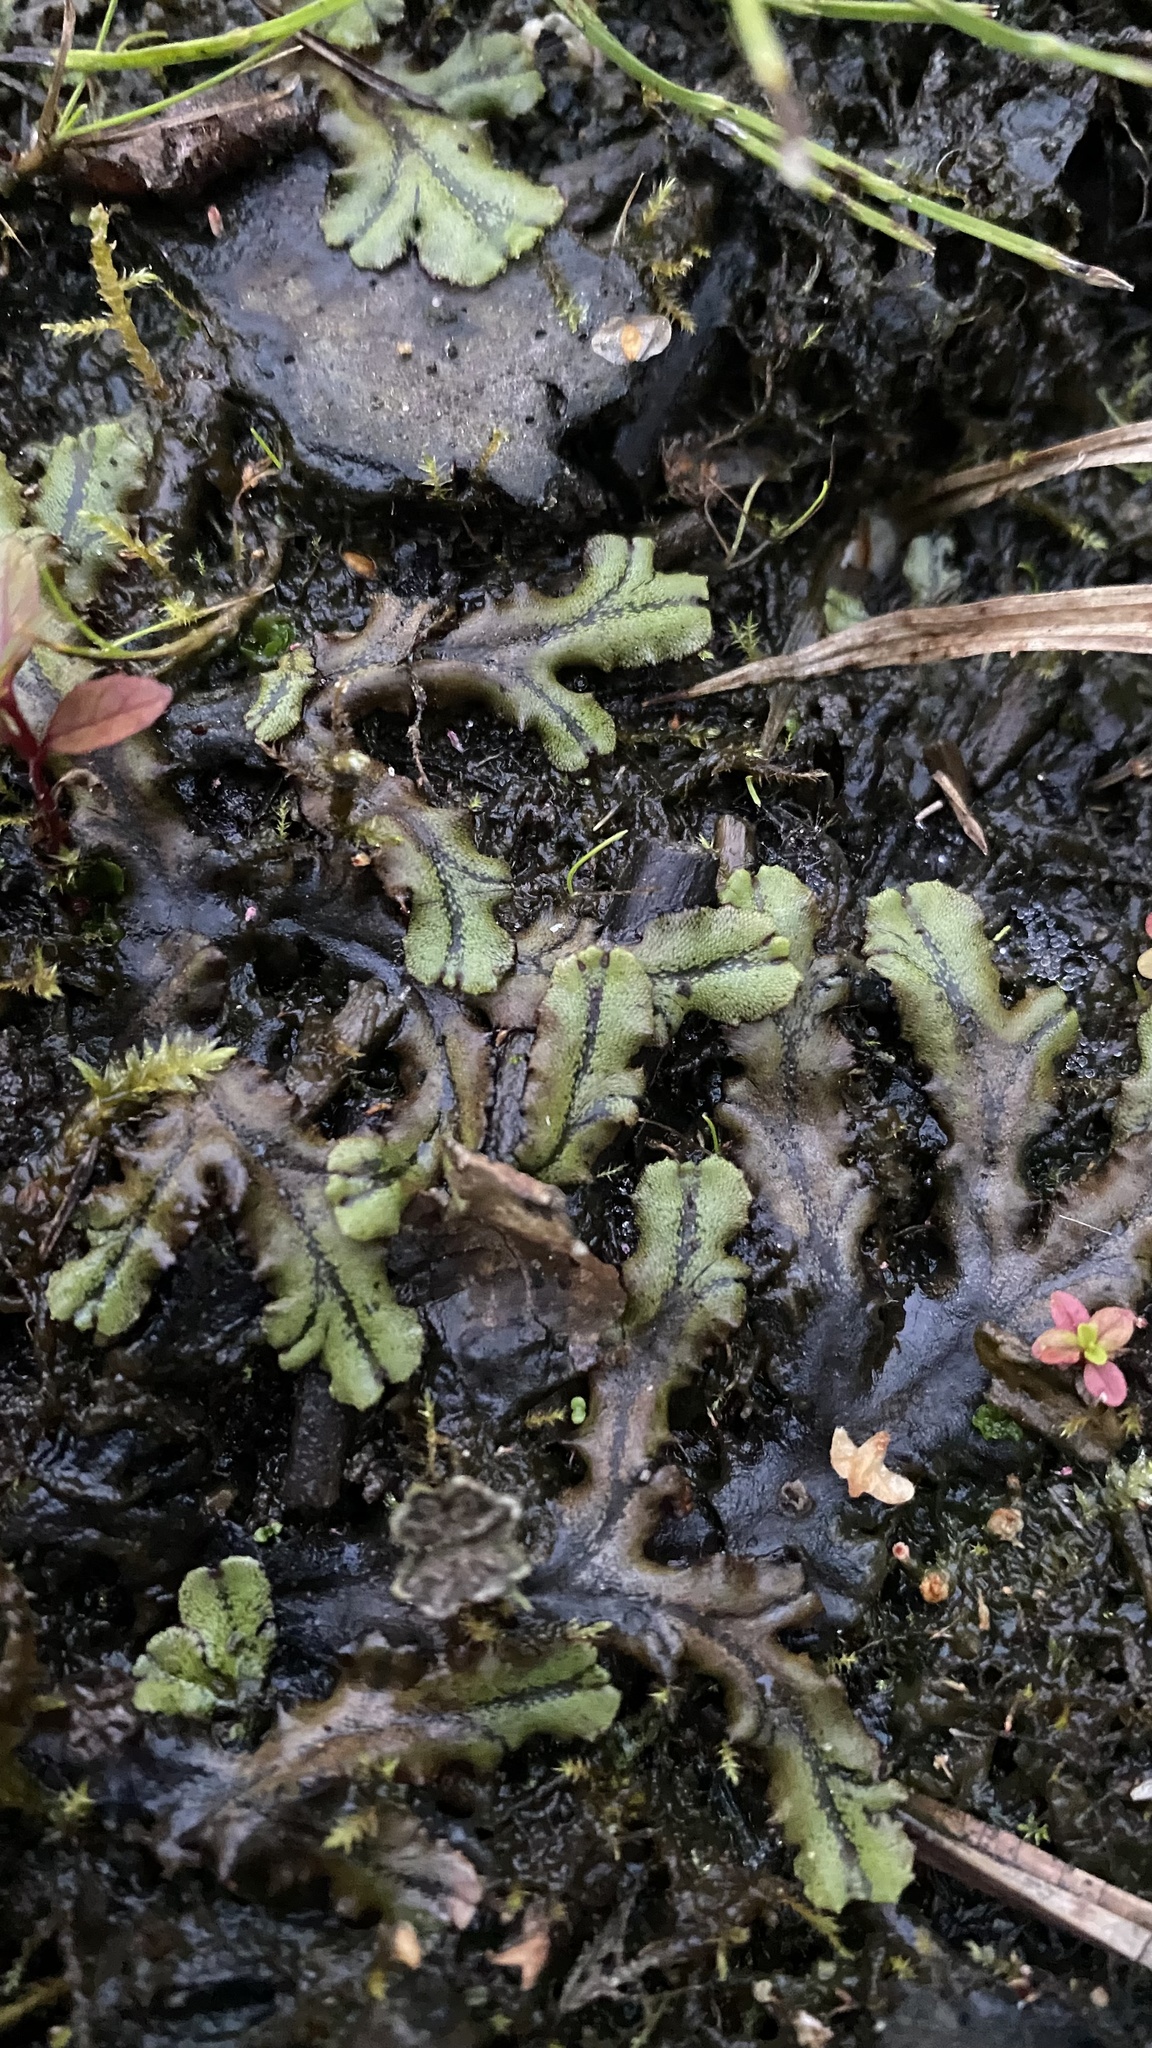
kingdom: Plantae
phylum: Marchantiophyta
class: Marchantiopsida
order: Marchantiales
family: Marchantiaceae
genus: Marchantia
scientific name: Marchantia polymorpha
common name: Common liverwort
